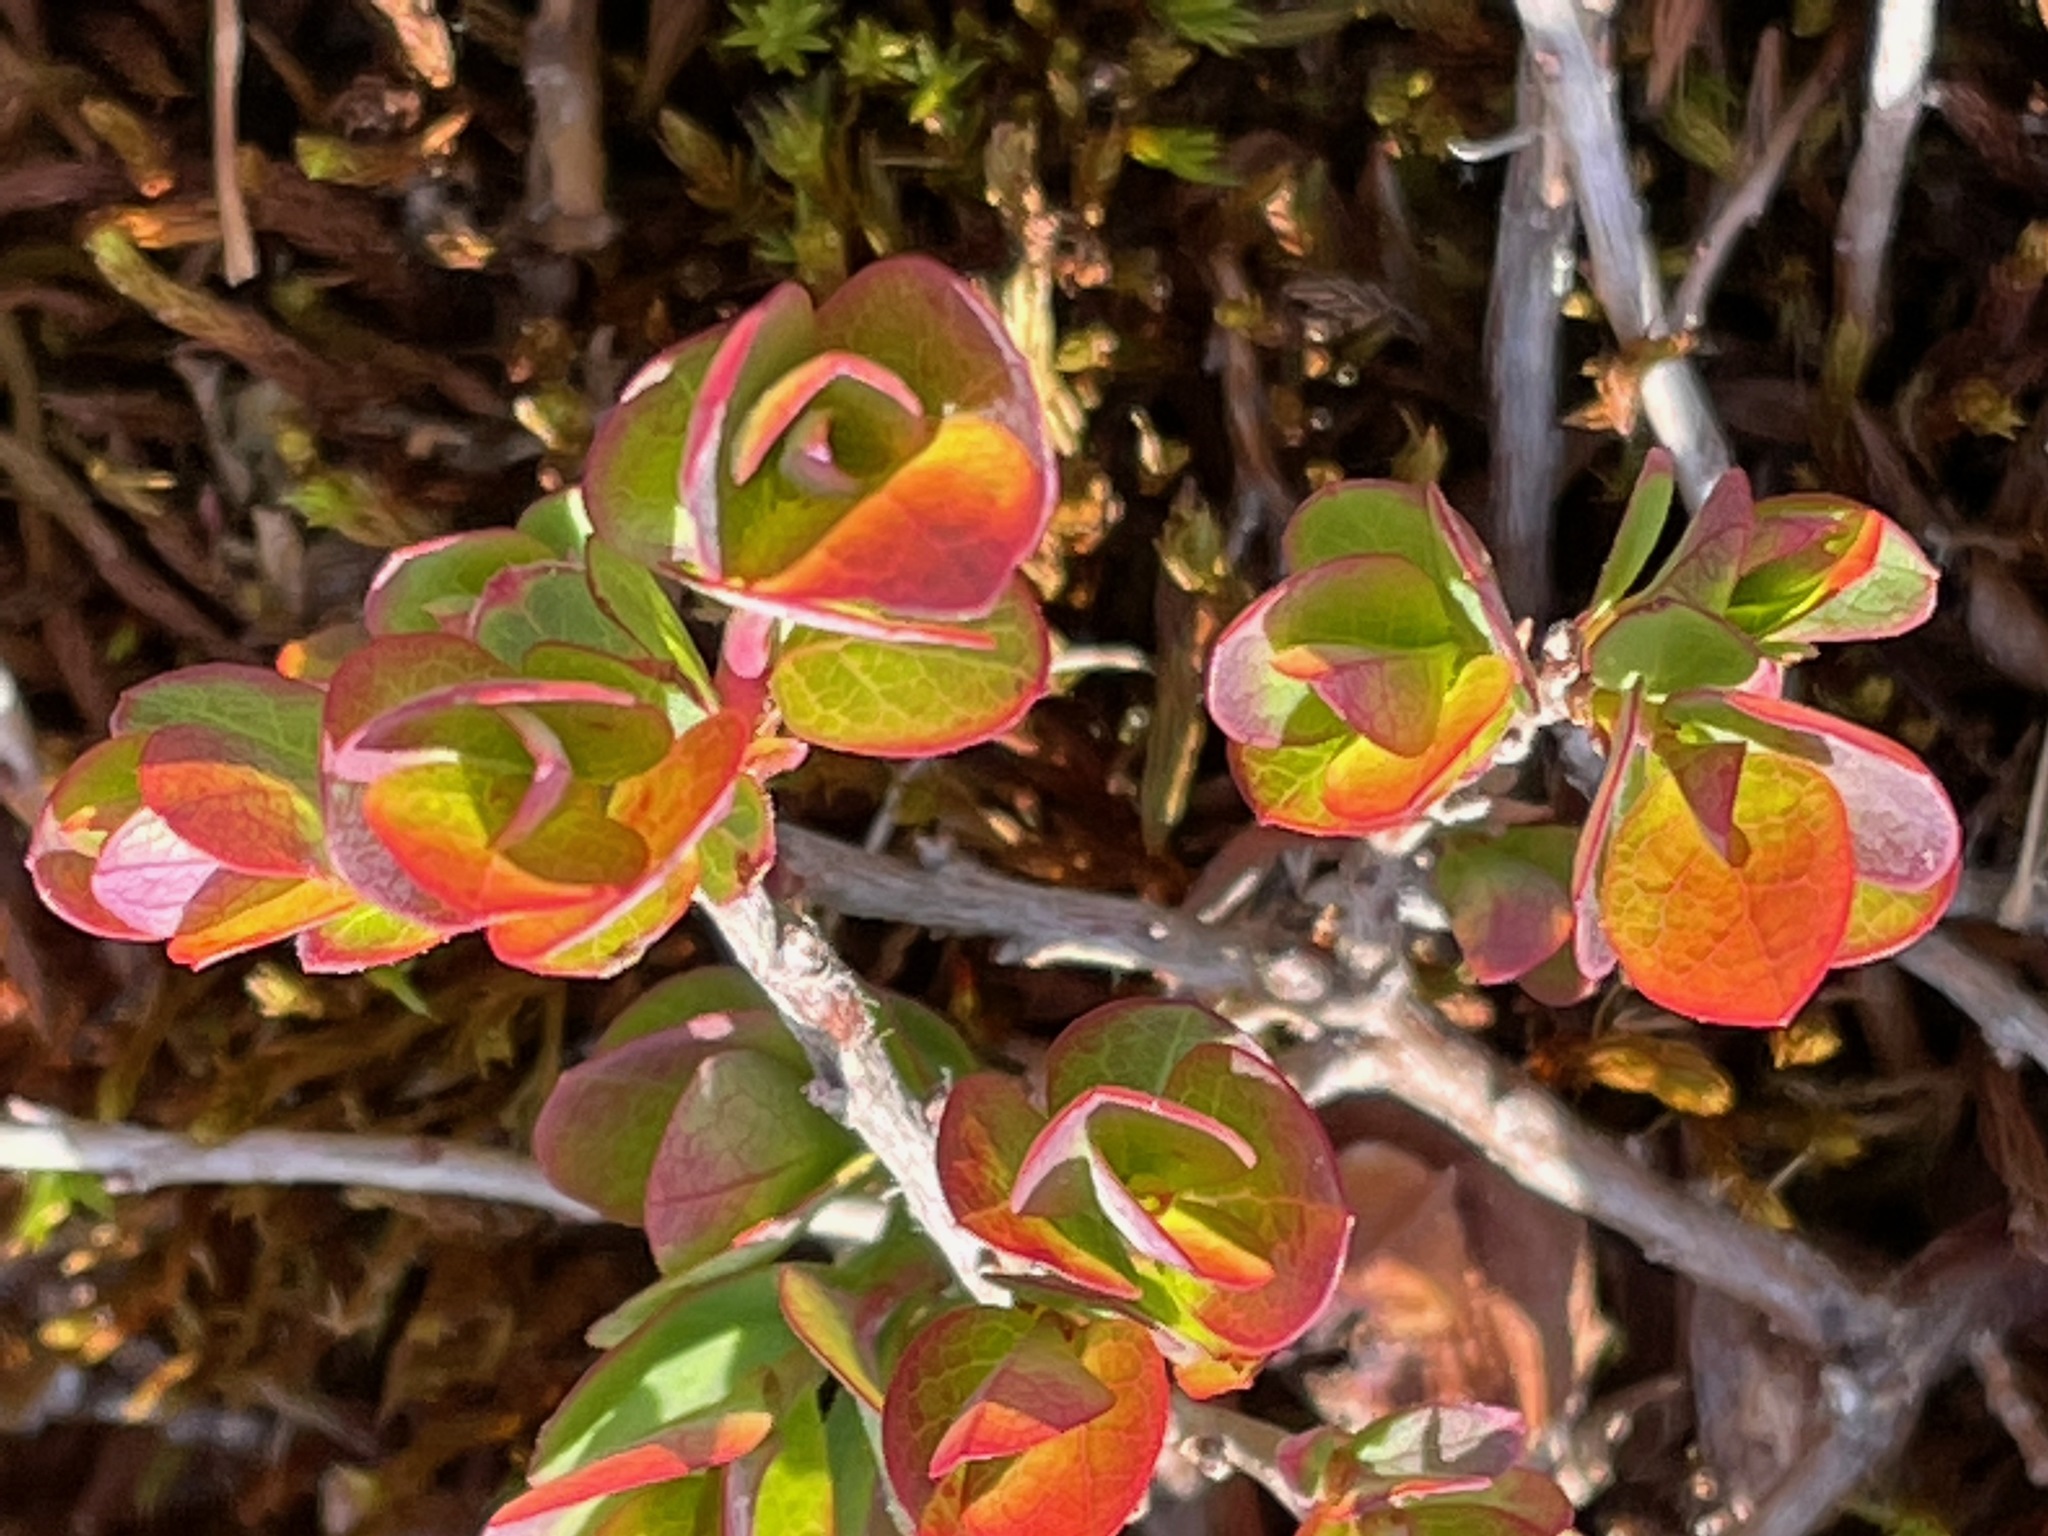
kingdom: Plantae
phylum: Tracheophyta
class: Magnoliopsida
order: Ericales
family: Ericaceae
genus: Vaccinium
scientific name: Vaccinium uliginosum
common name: Bog bilberry
